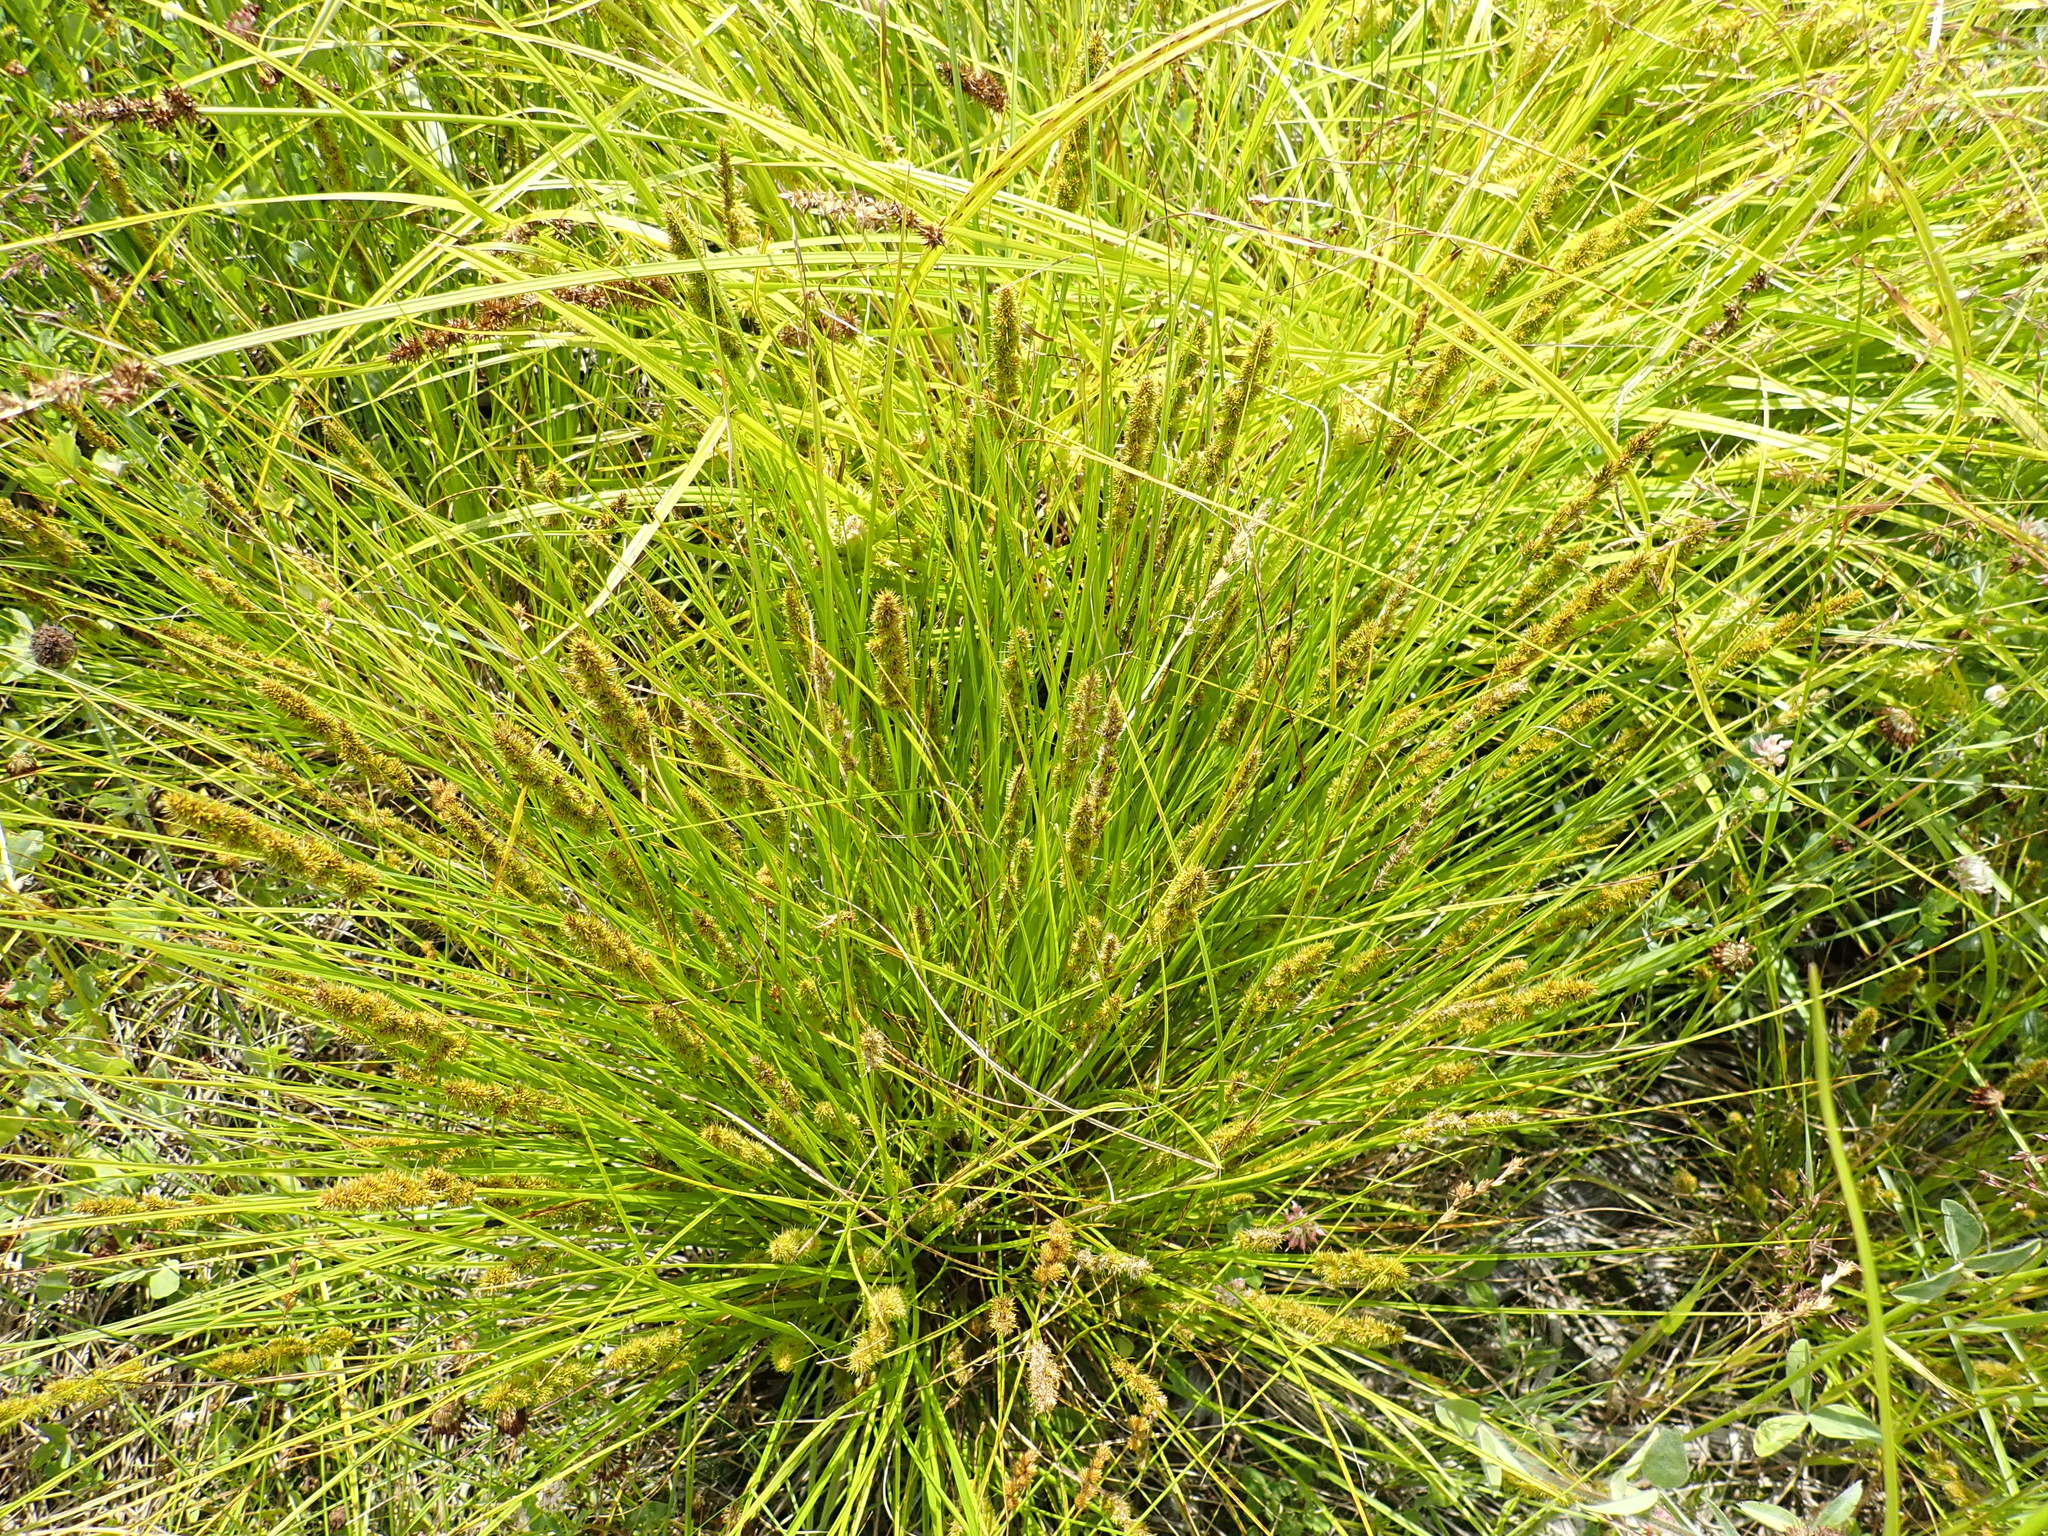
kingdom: Plantae
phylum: Tracheophyta
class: Liliopsida
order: Poales
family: Cyperaceae
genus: Carex
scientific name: Carex vulpinoidea
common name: American fox-sedge
